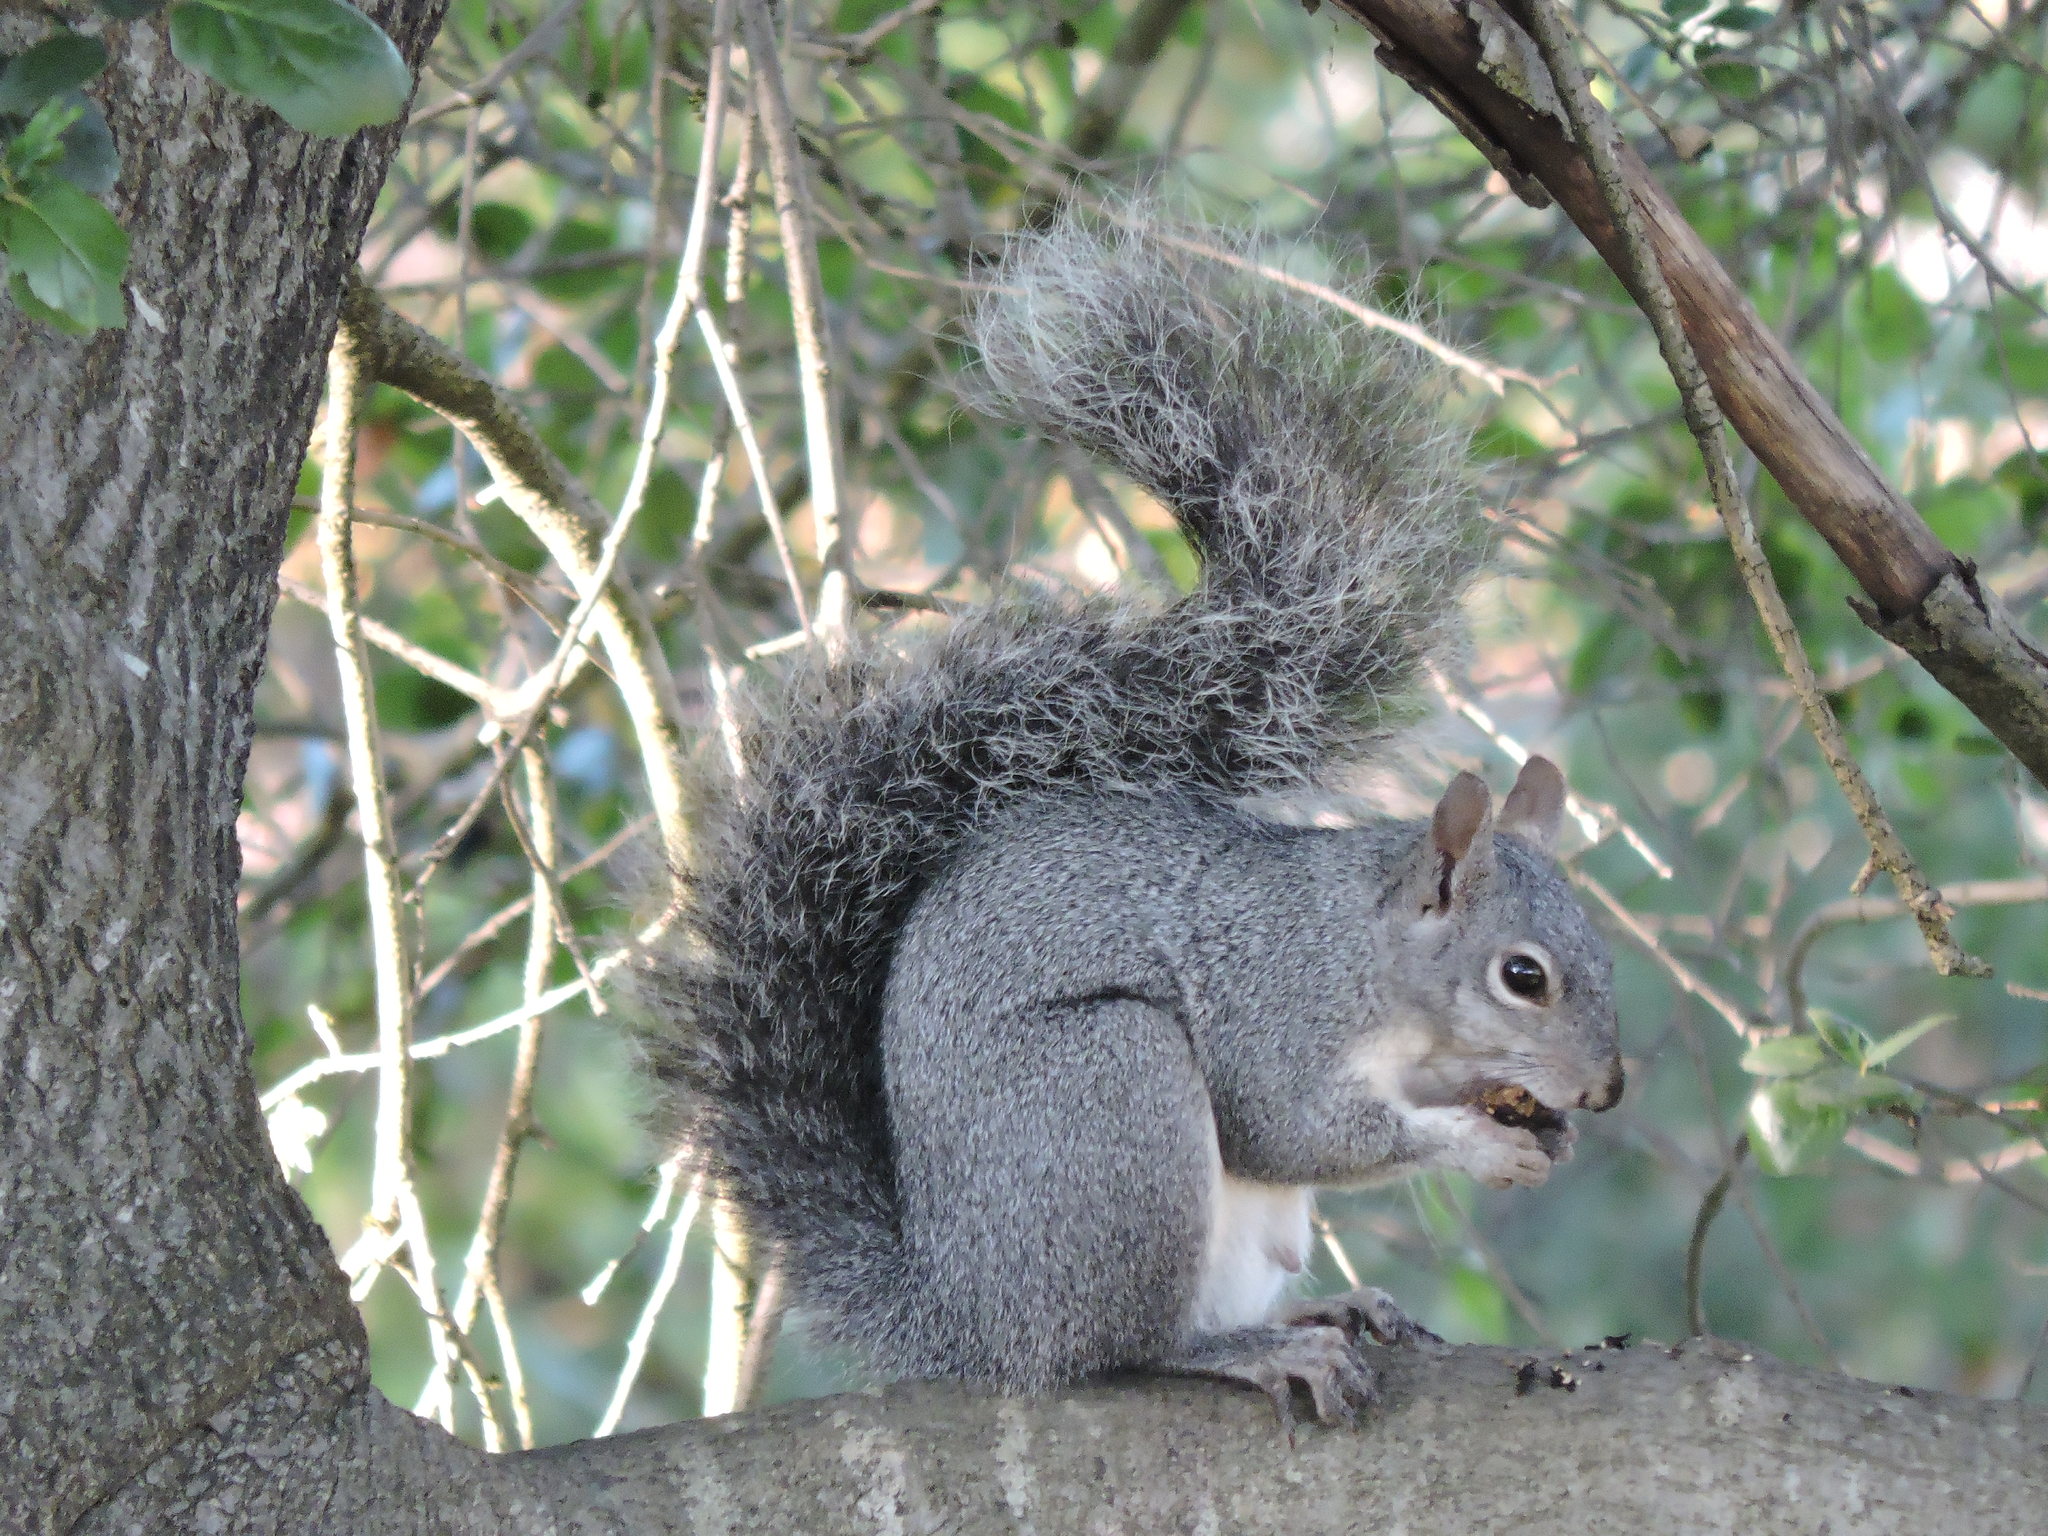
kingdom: Animalia
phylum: Chordata
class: Mammalia
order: Rodentia
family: Sciuridae
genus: Sciurus
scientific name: Sciurus griseus
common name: Western gray squirrel
